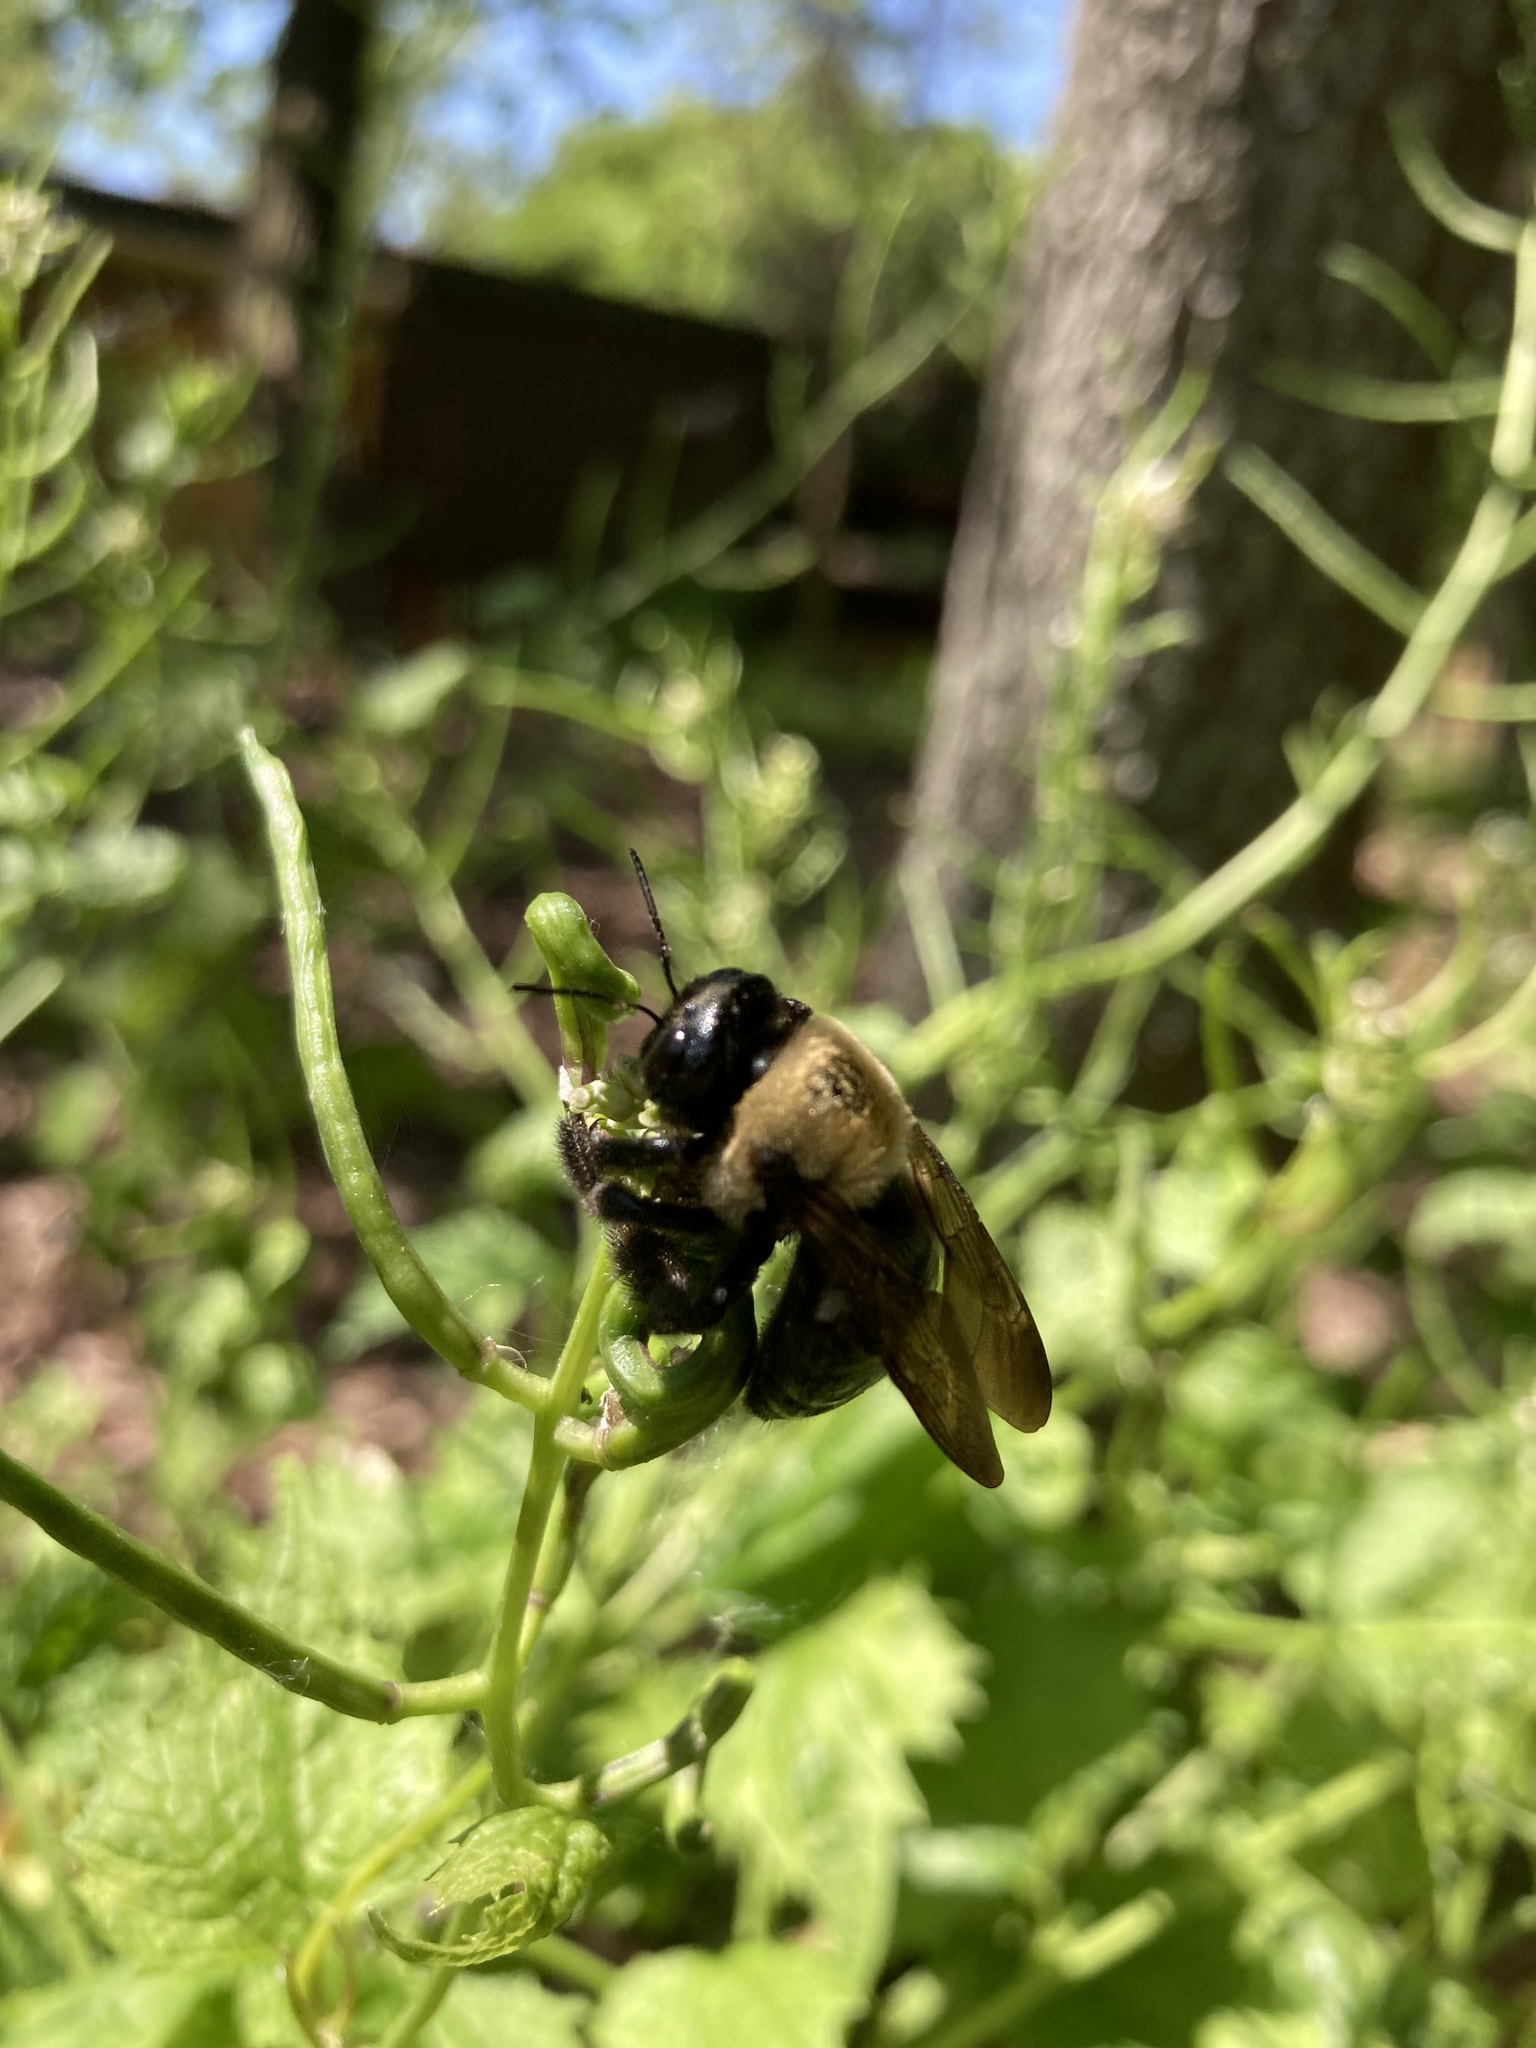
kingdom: Animalia
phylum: Arthropoda
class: Insecta
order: Hymenoptera
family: Apidae
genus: Xylocopa
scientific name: Xylocopa virginica
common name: Carpenter bee
